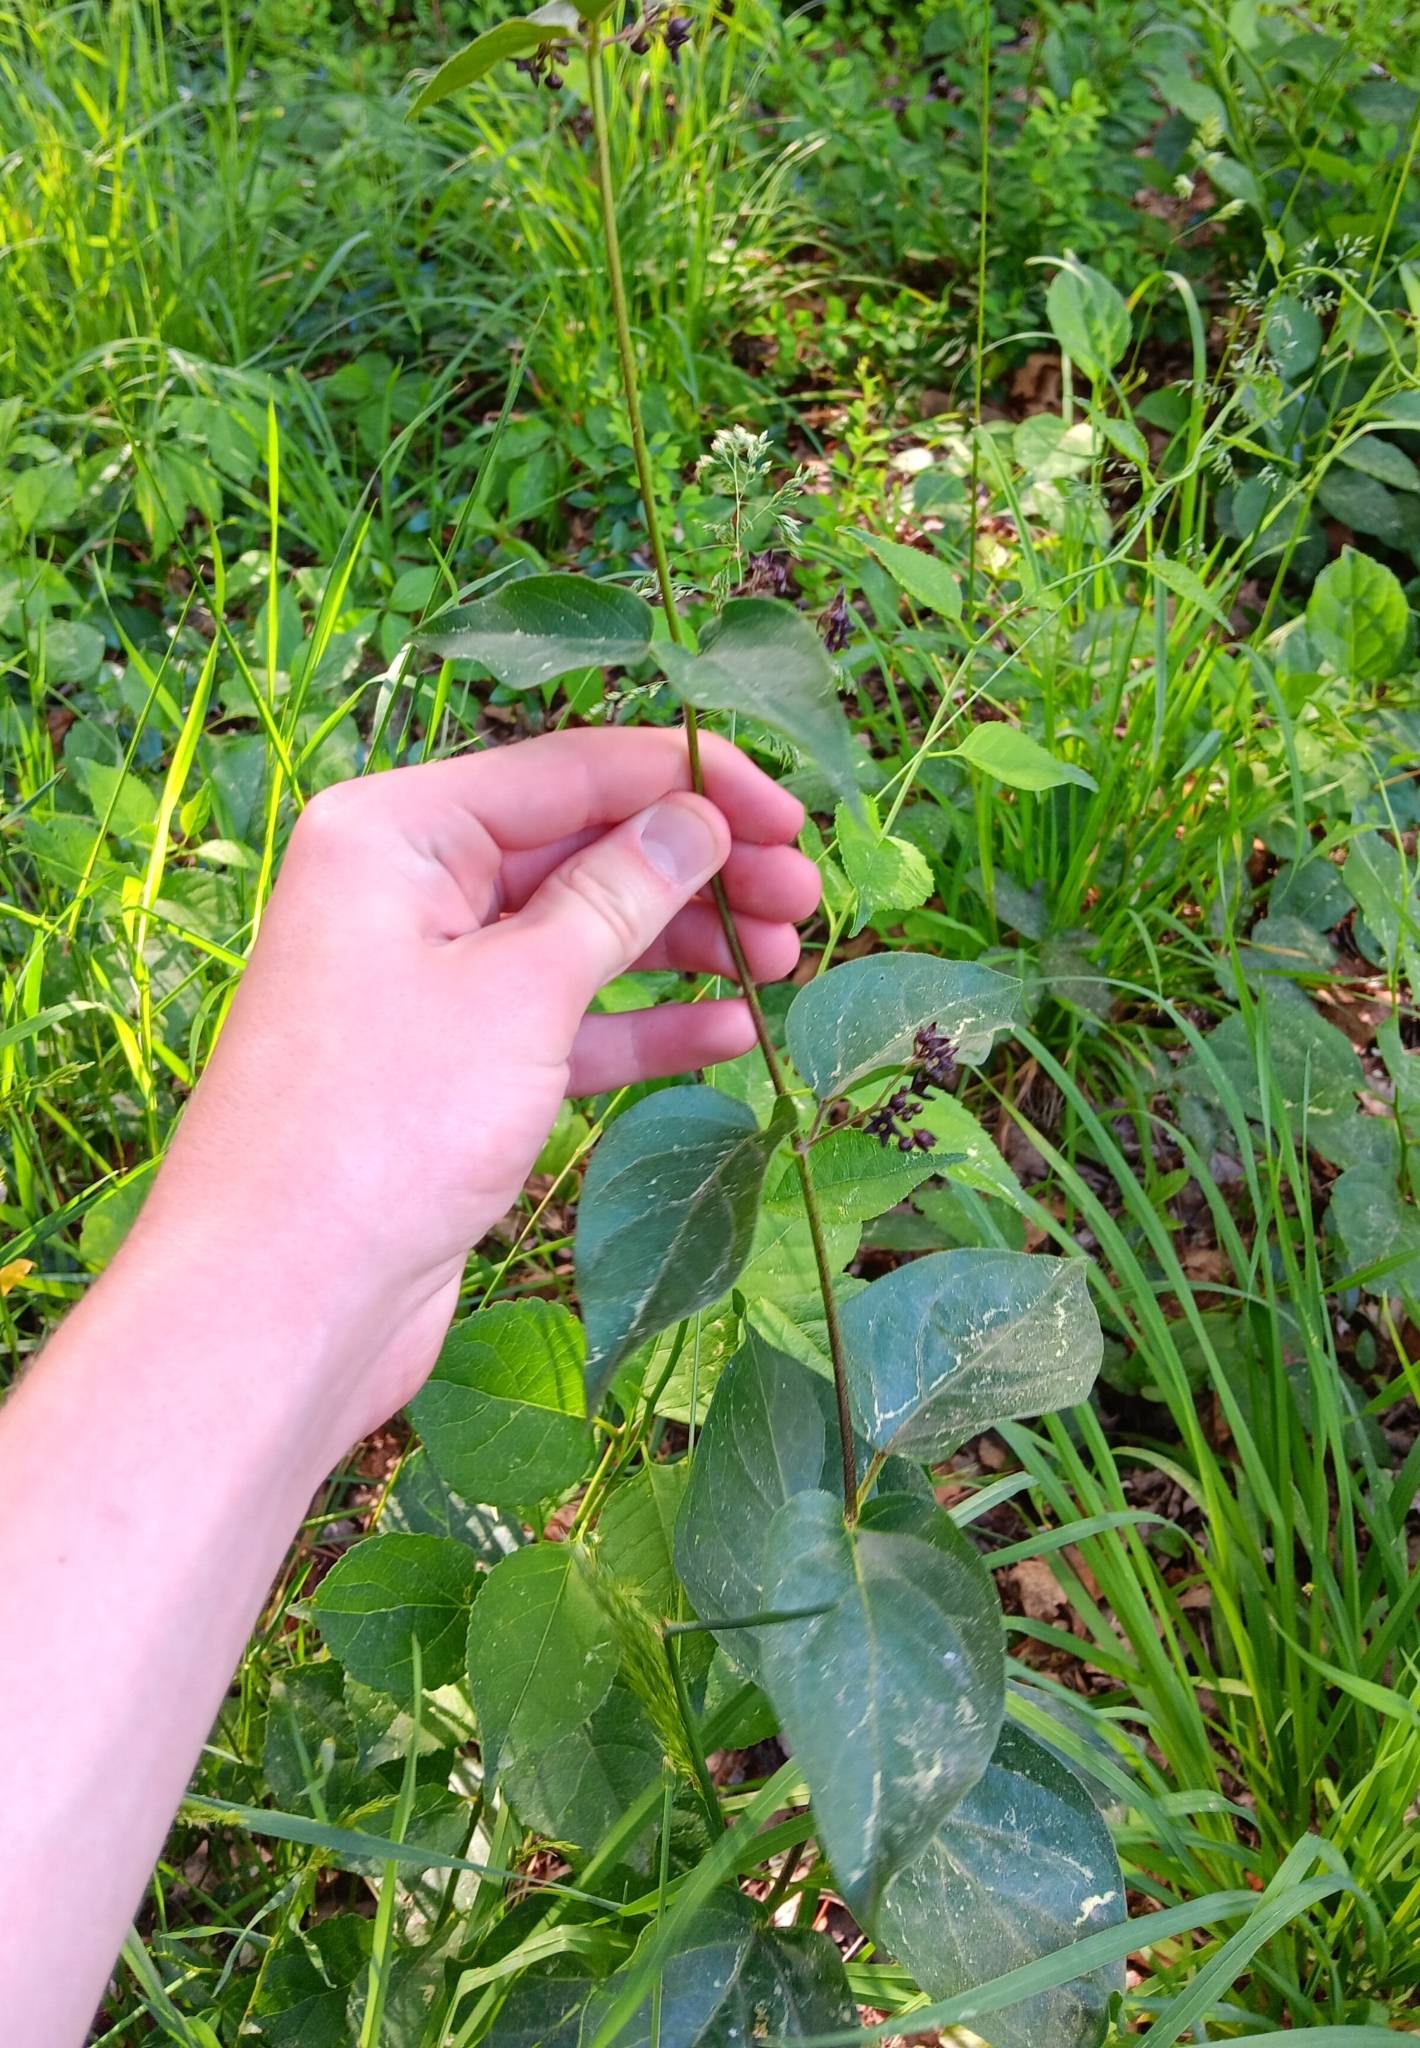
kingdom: Plantae
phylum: Tracheophyta
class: Magnoliopsida
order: Gentianales
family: Apocynaceae
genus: Vincetoxicum
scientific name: Vincetoxicum nigrum
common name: Black swallow-wort
